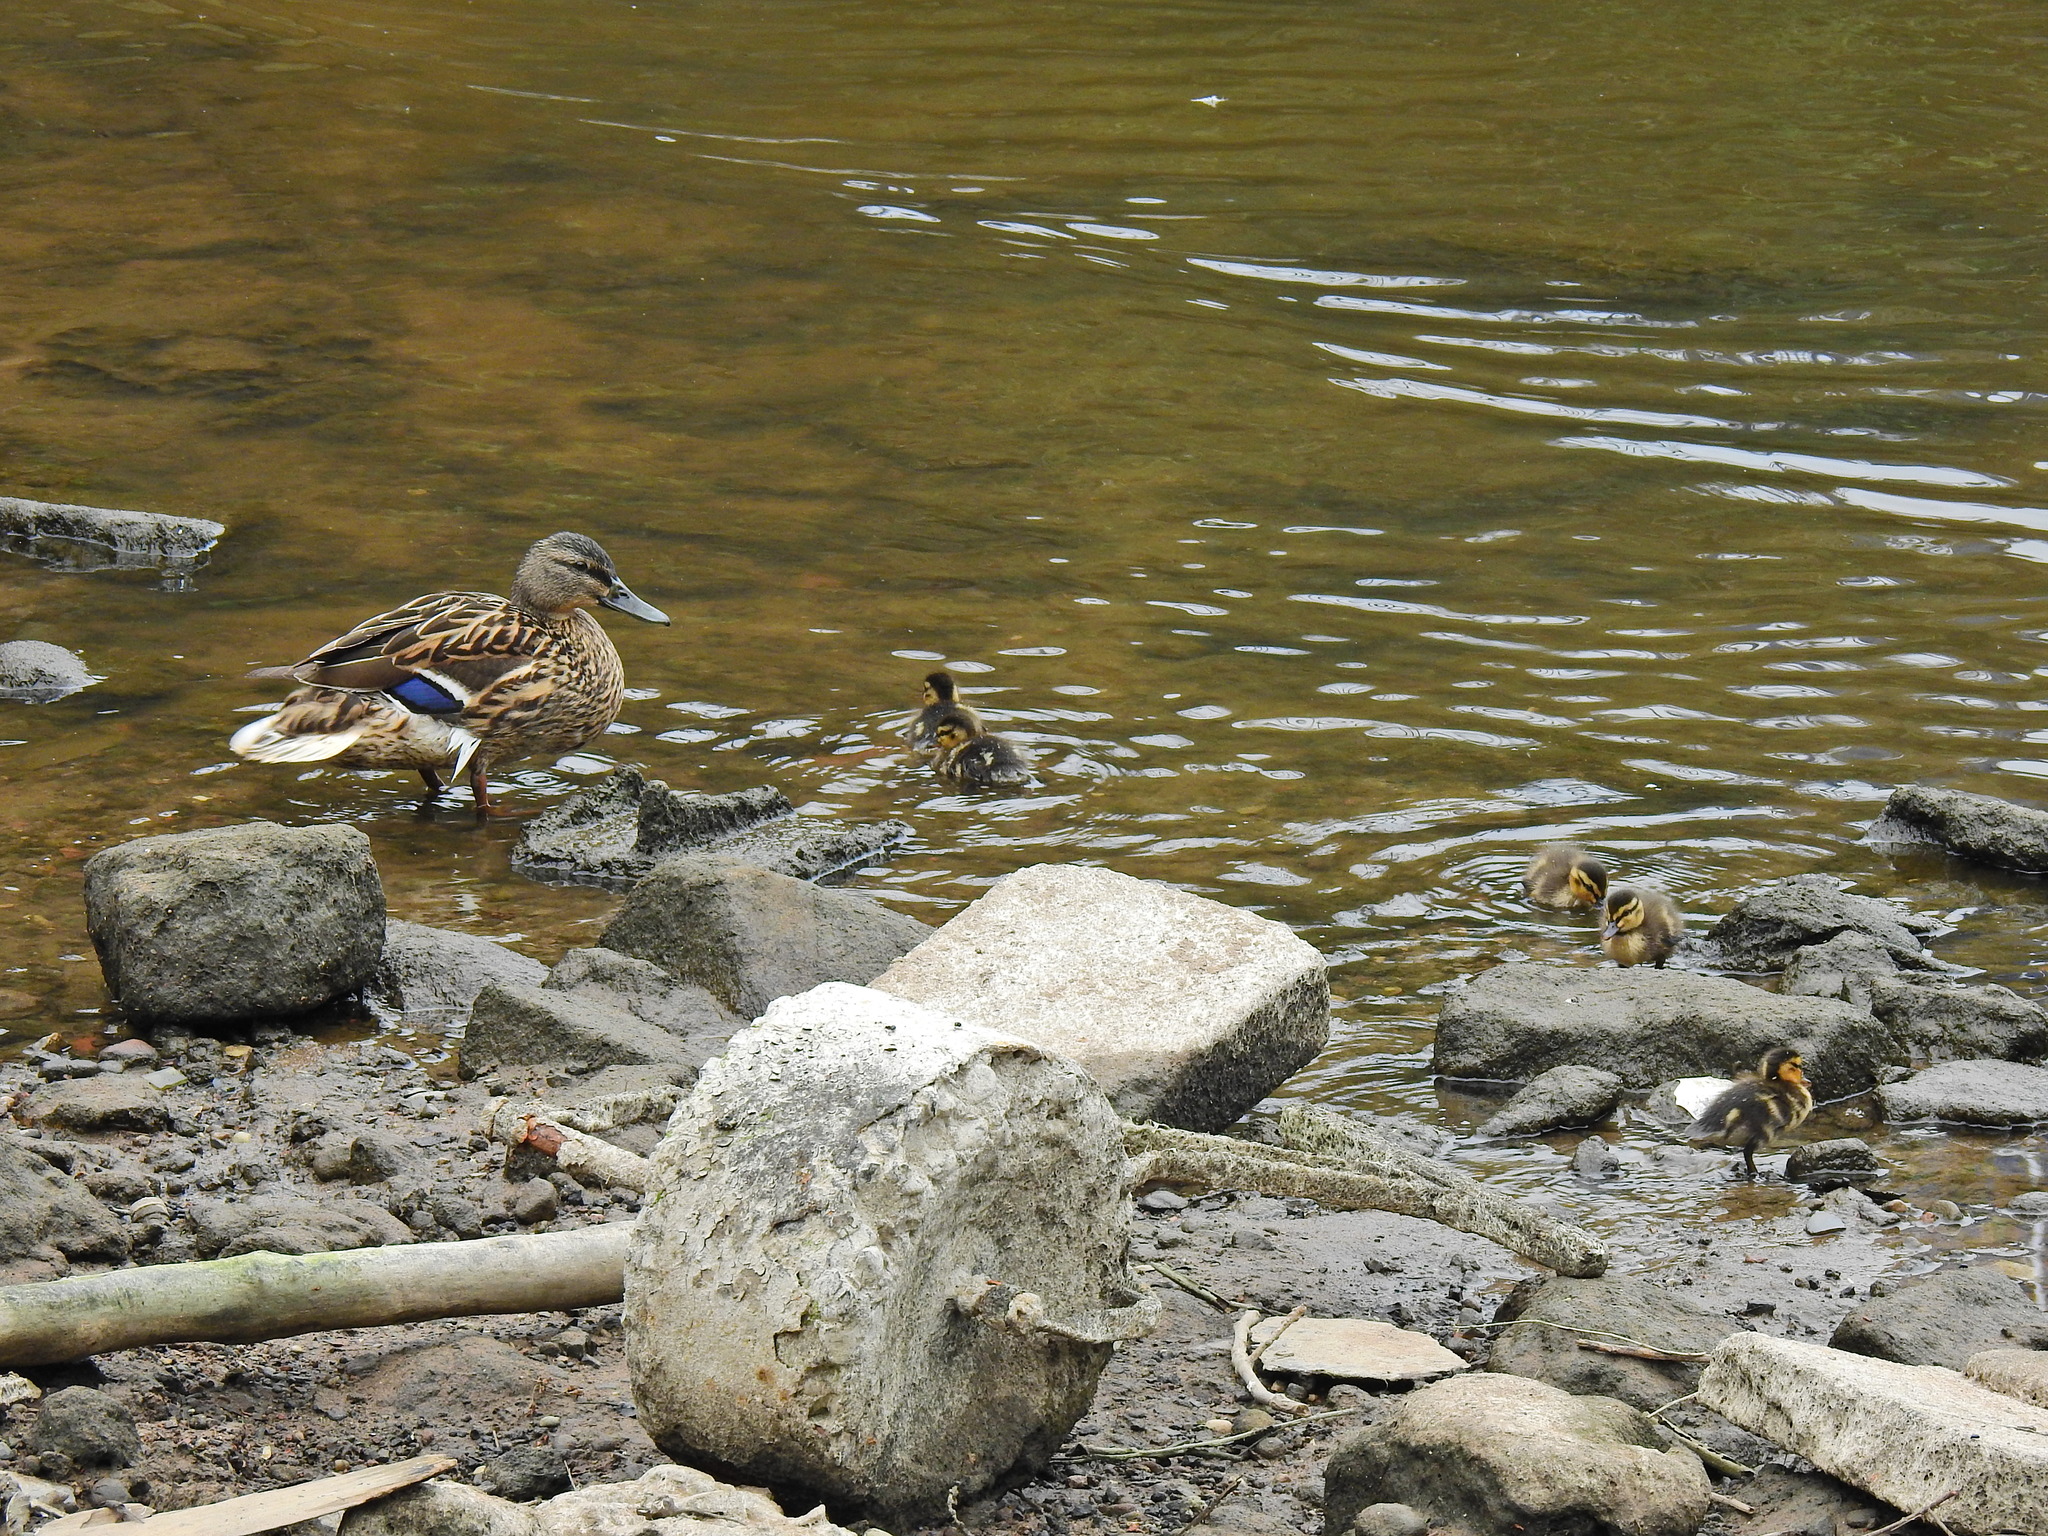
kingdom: Animalia
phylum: Chordata
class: Aves
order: Anseriformes
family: Anatidae
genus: Anas
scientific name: Anas platyrhynchos
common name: Mallard
